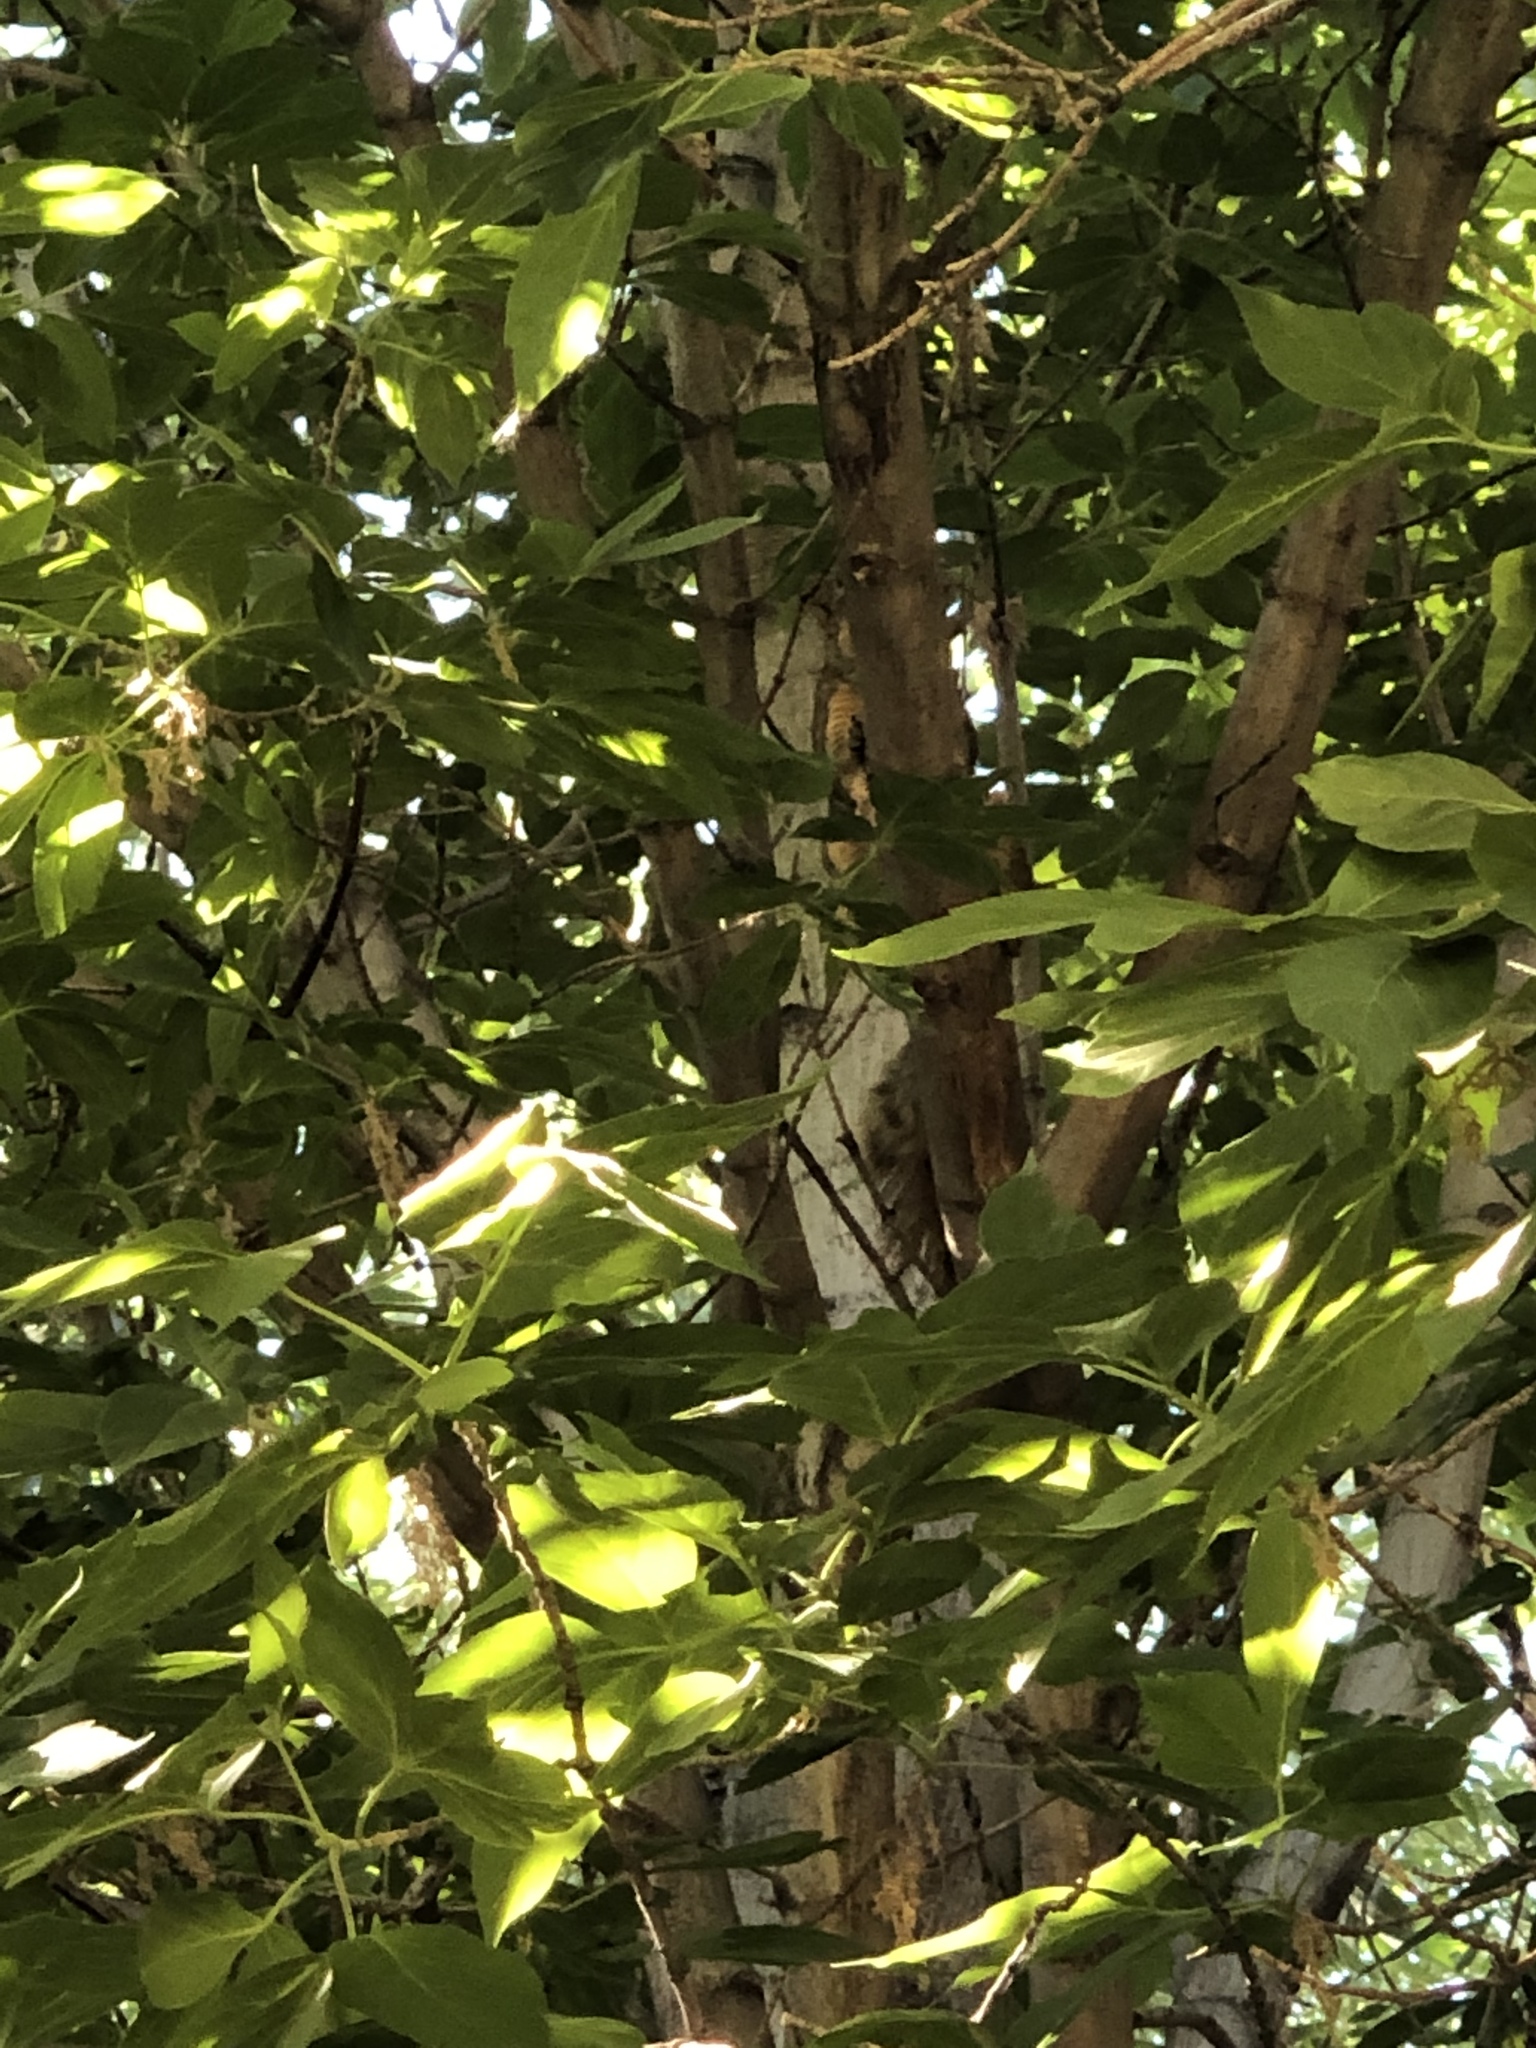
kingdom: Animalia
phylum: Chordata
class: Mammalia
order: Rodentia
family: Sciuridae
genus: Sciurus
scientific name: Sciurus niger
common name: Fox squirrel
